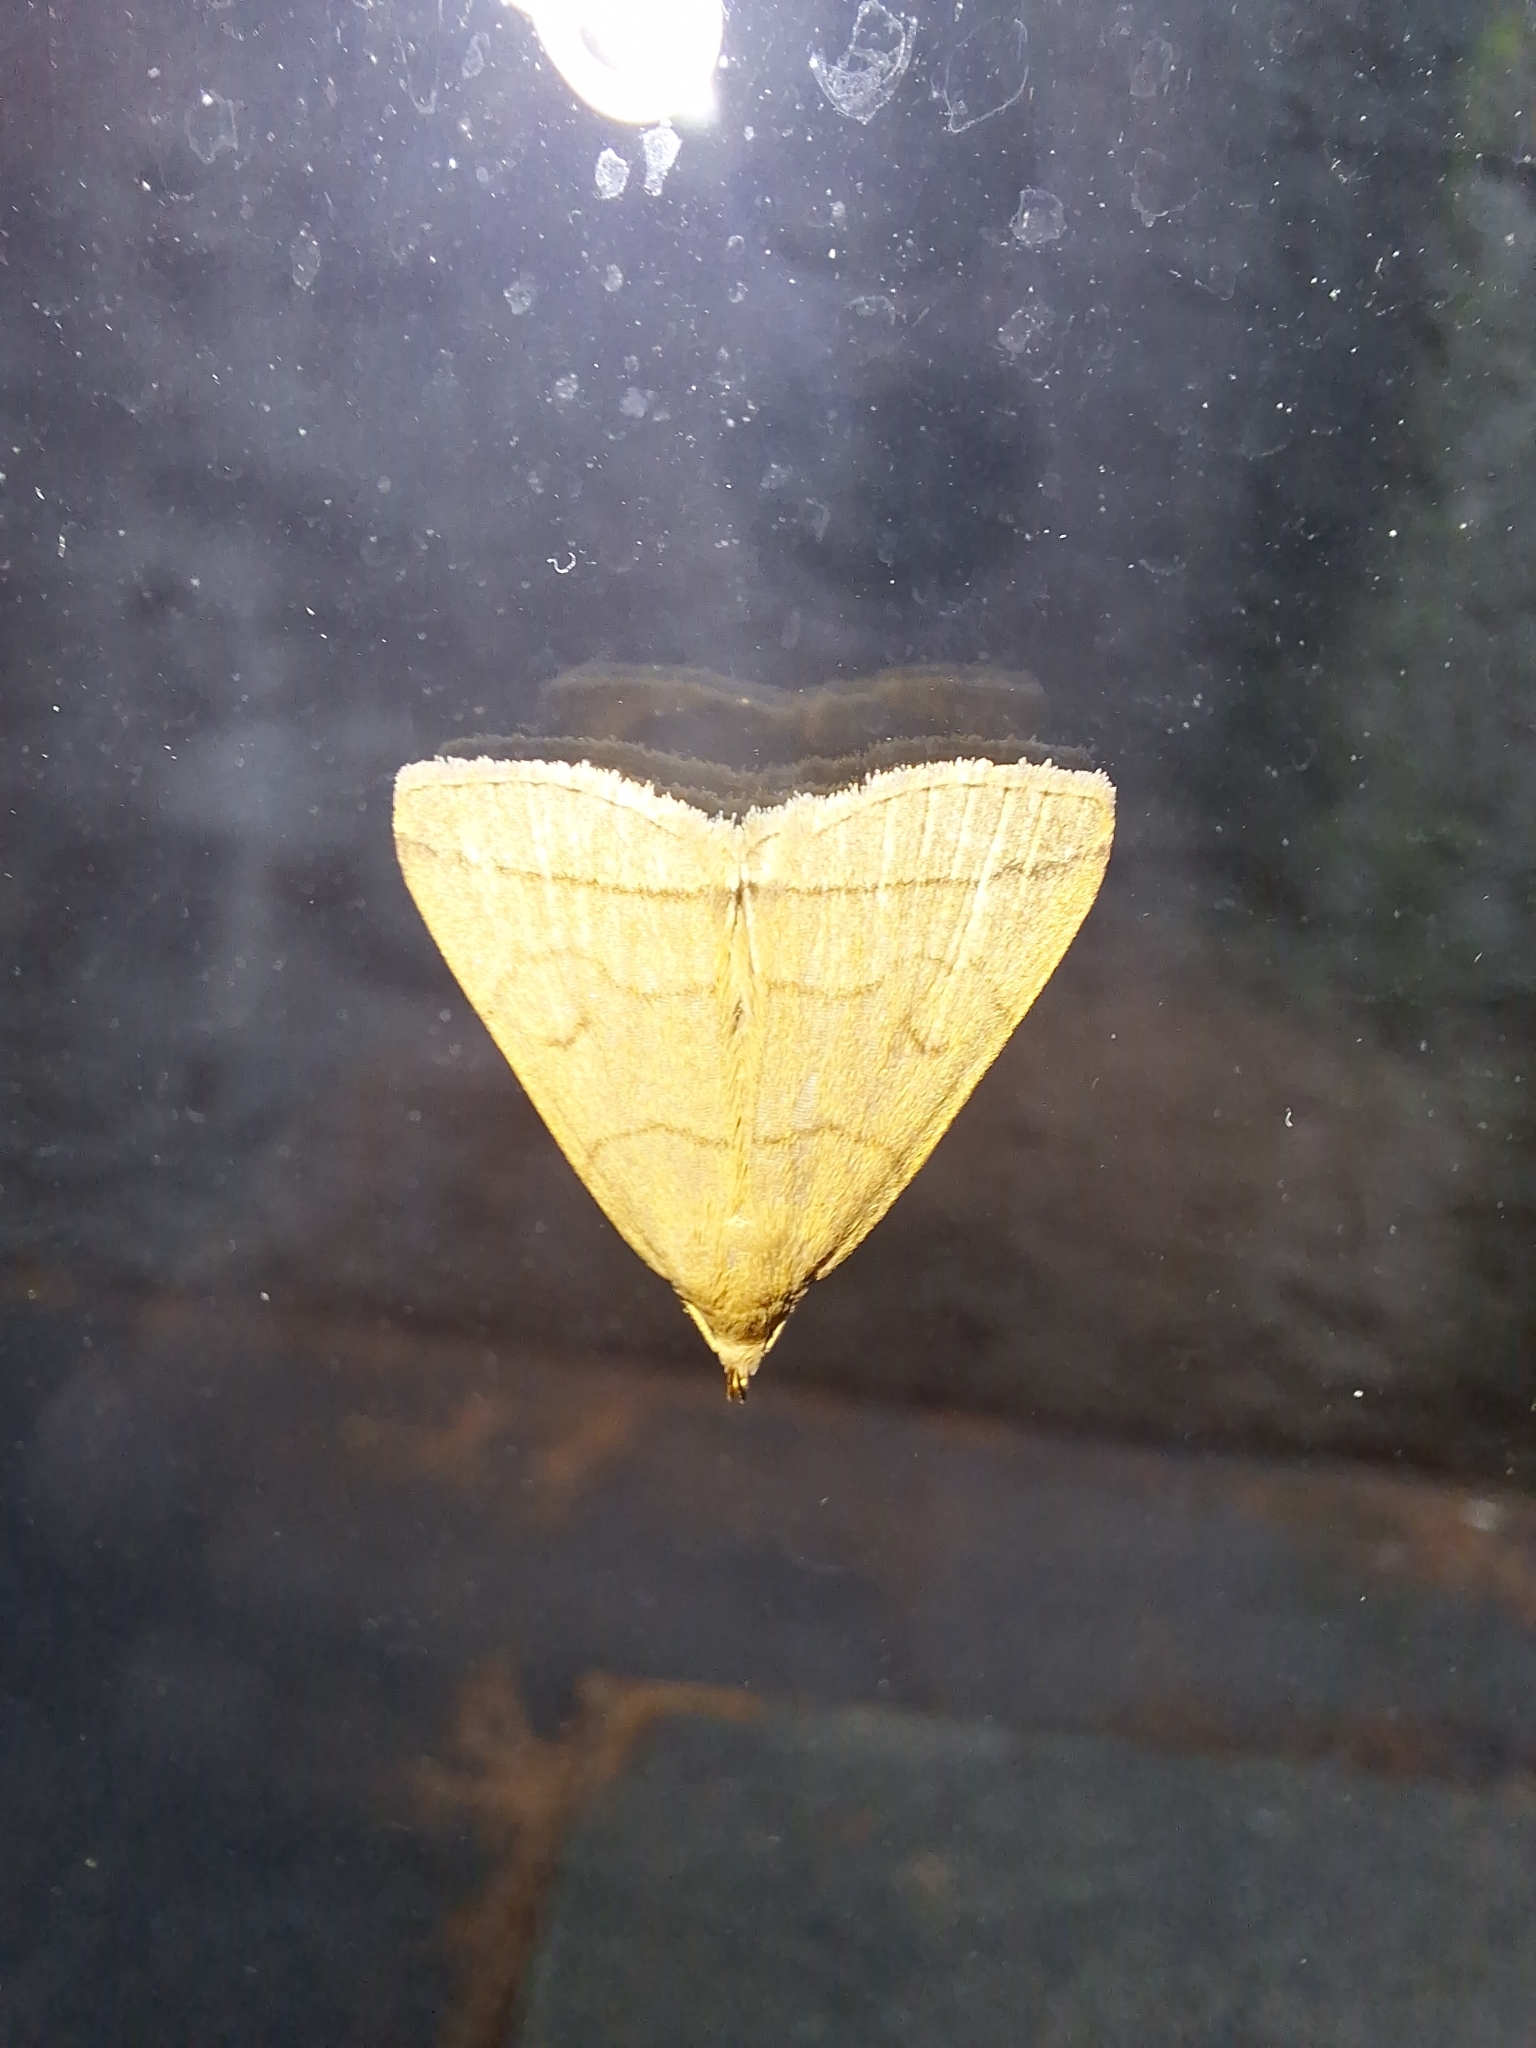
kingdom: Animalia
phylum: Arthropoda
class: Insecta
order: Lepidoptera
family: Erebidae
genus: Herminia
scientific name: Herminia tarsipennalis
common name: Fan-foot
